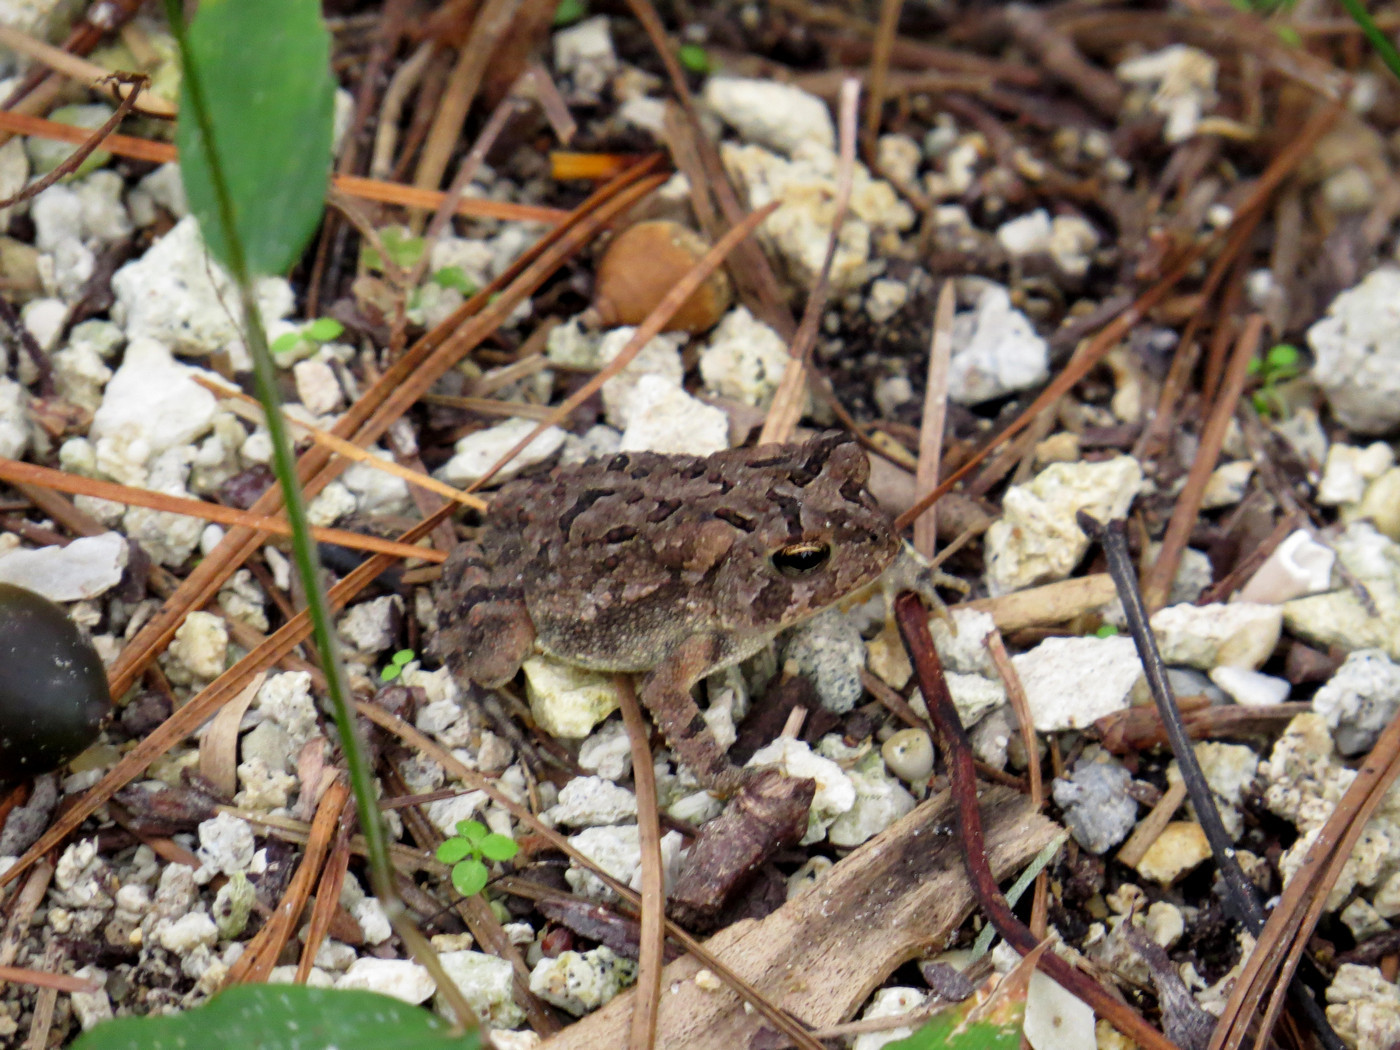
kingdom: Animalia
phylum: Chordata
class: Amphibia
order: Anura
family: Bufonidae
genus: Anaxyrus
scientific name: Anaxyrus terrestris
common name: Southern toad
